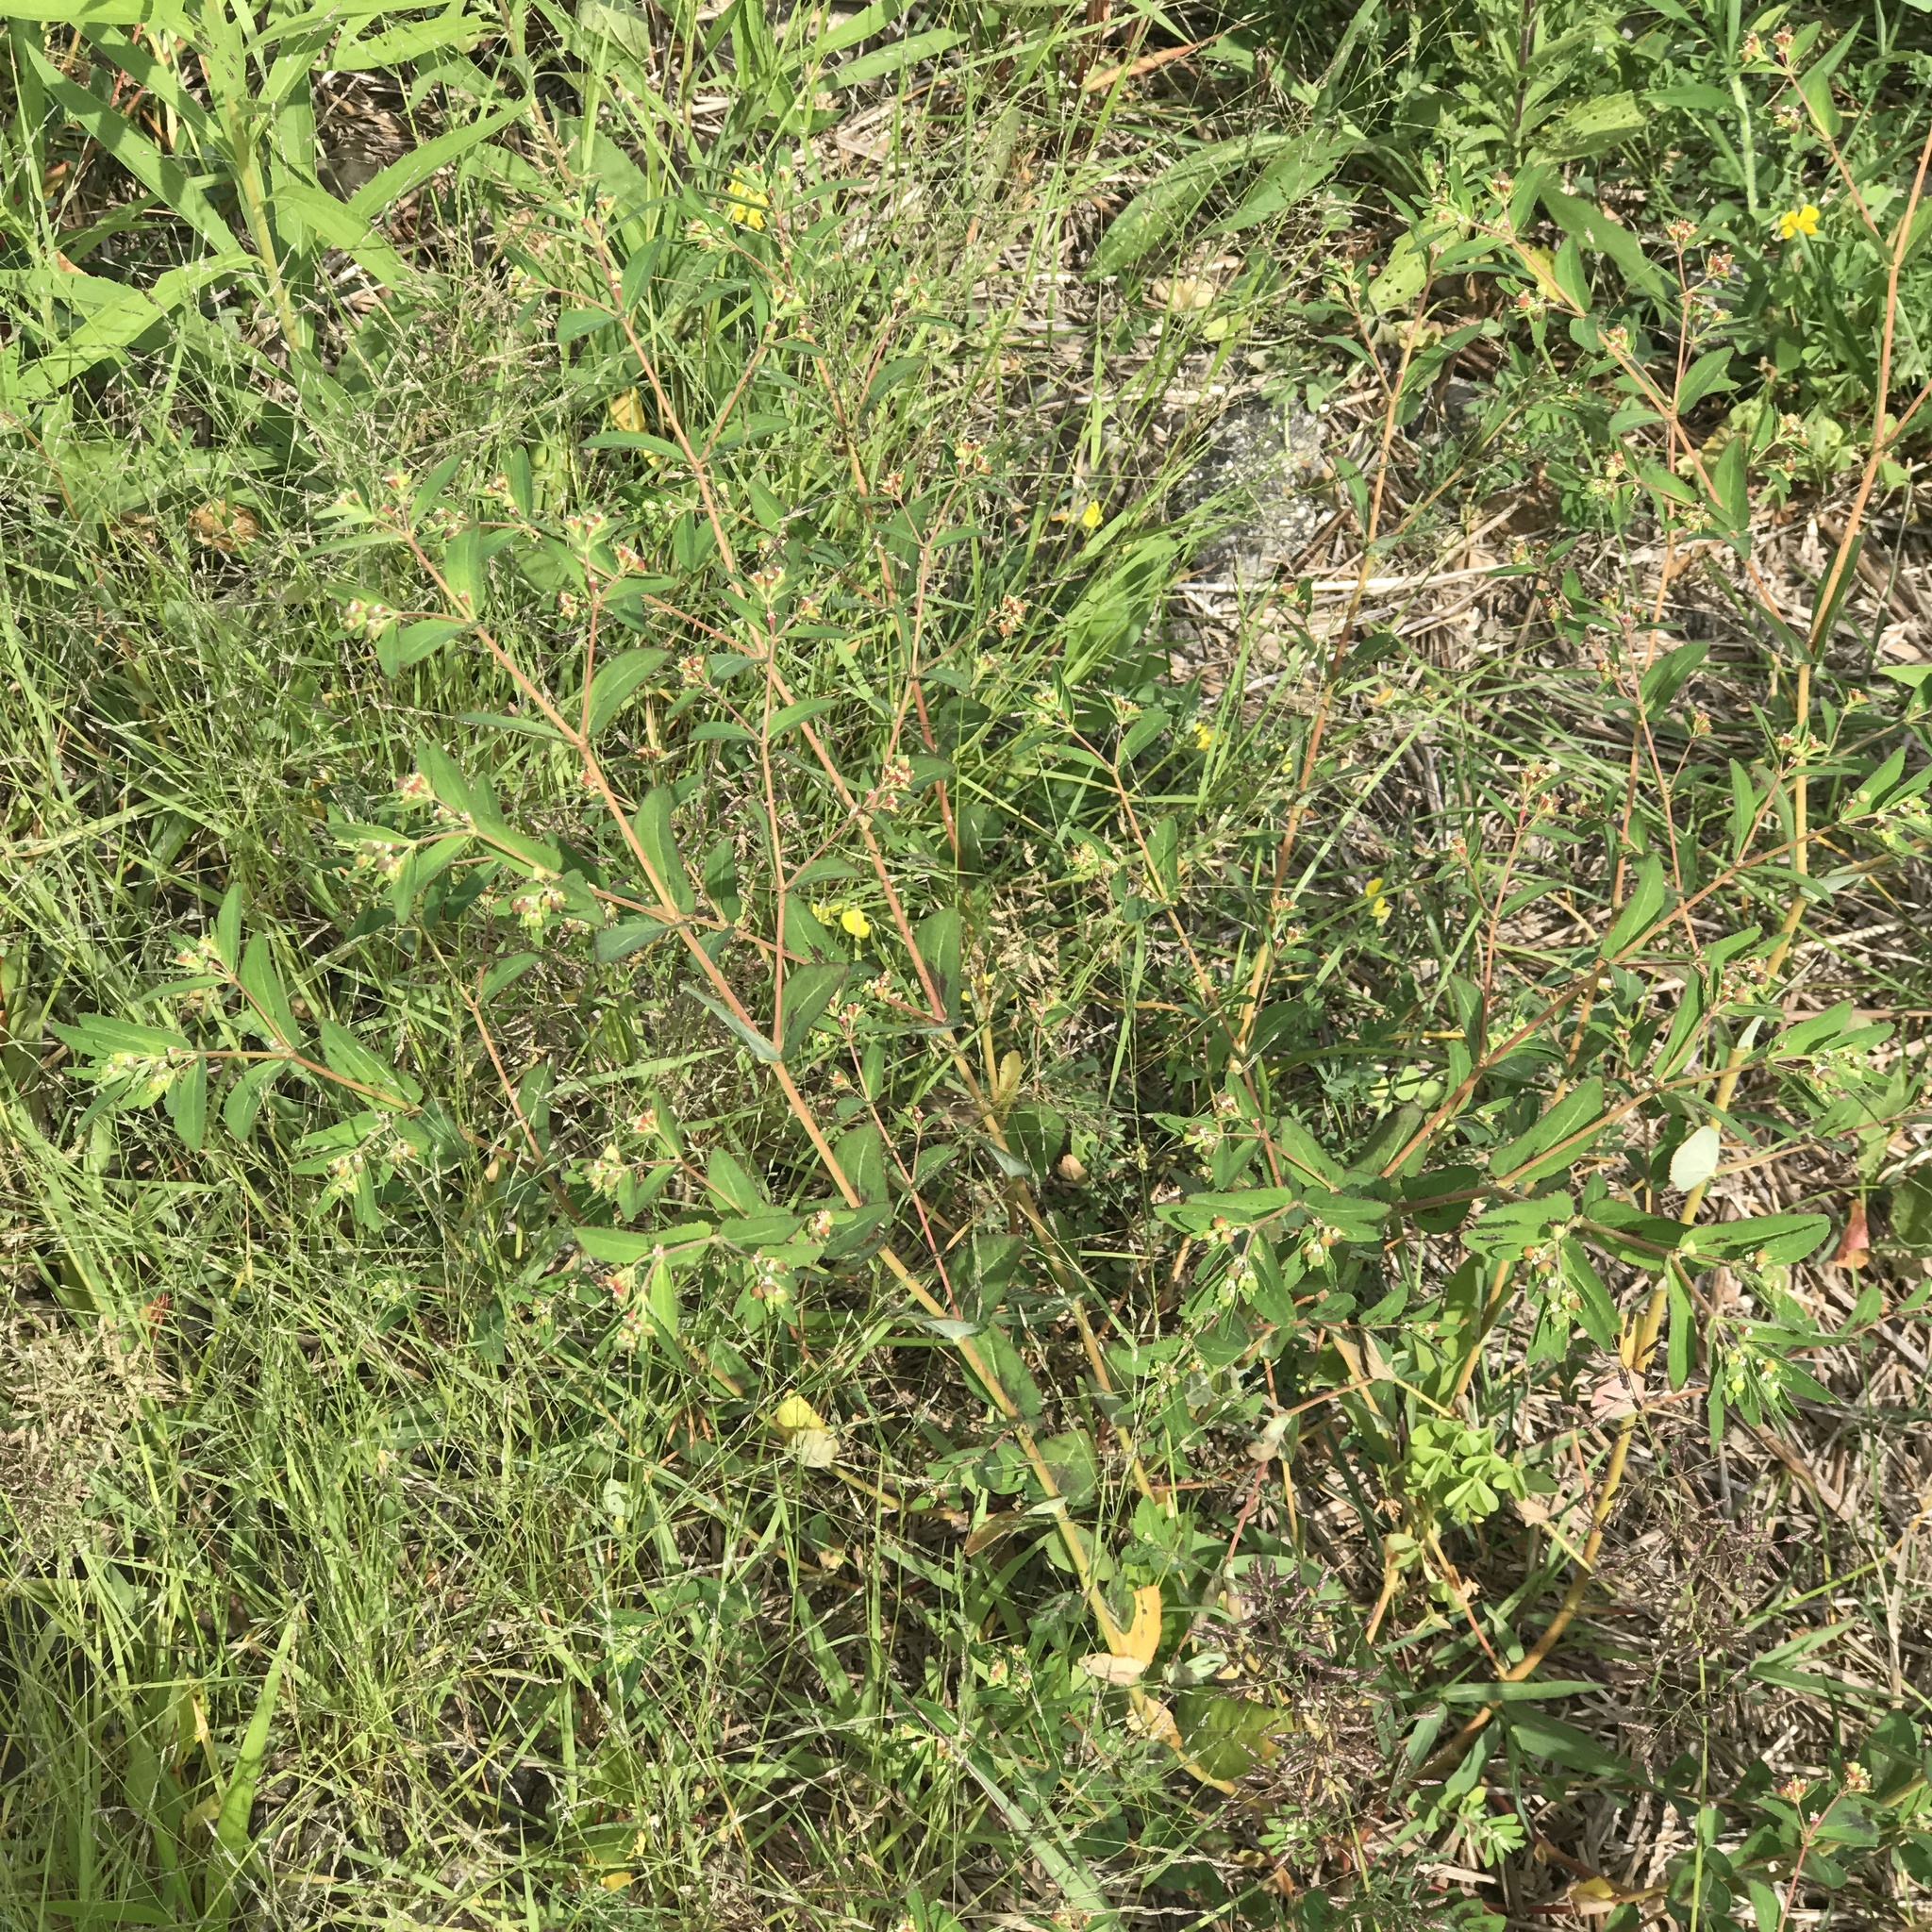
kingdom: Plantae
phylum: Tracheophyta
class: Magnoliopsida
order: Malpighiales
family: Euphorbiaceae
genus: Euphorbia
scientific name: Euphorbia nutans
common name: Eyebane
